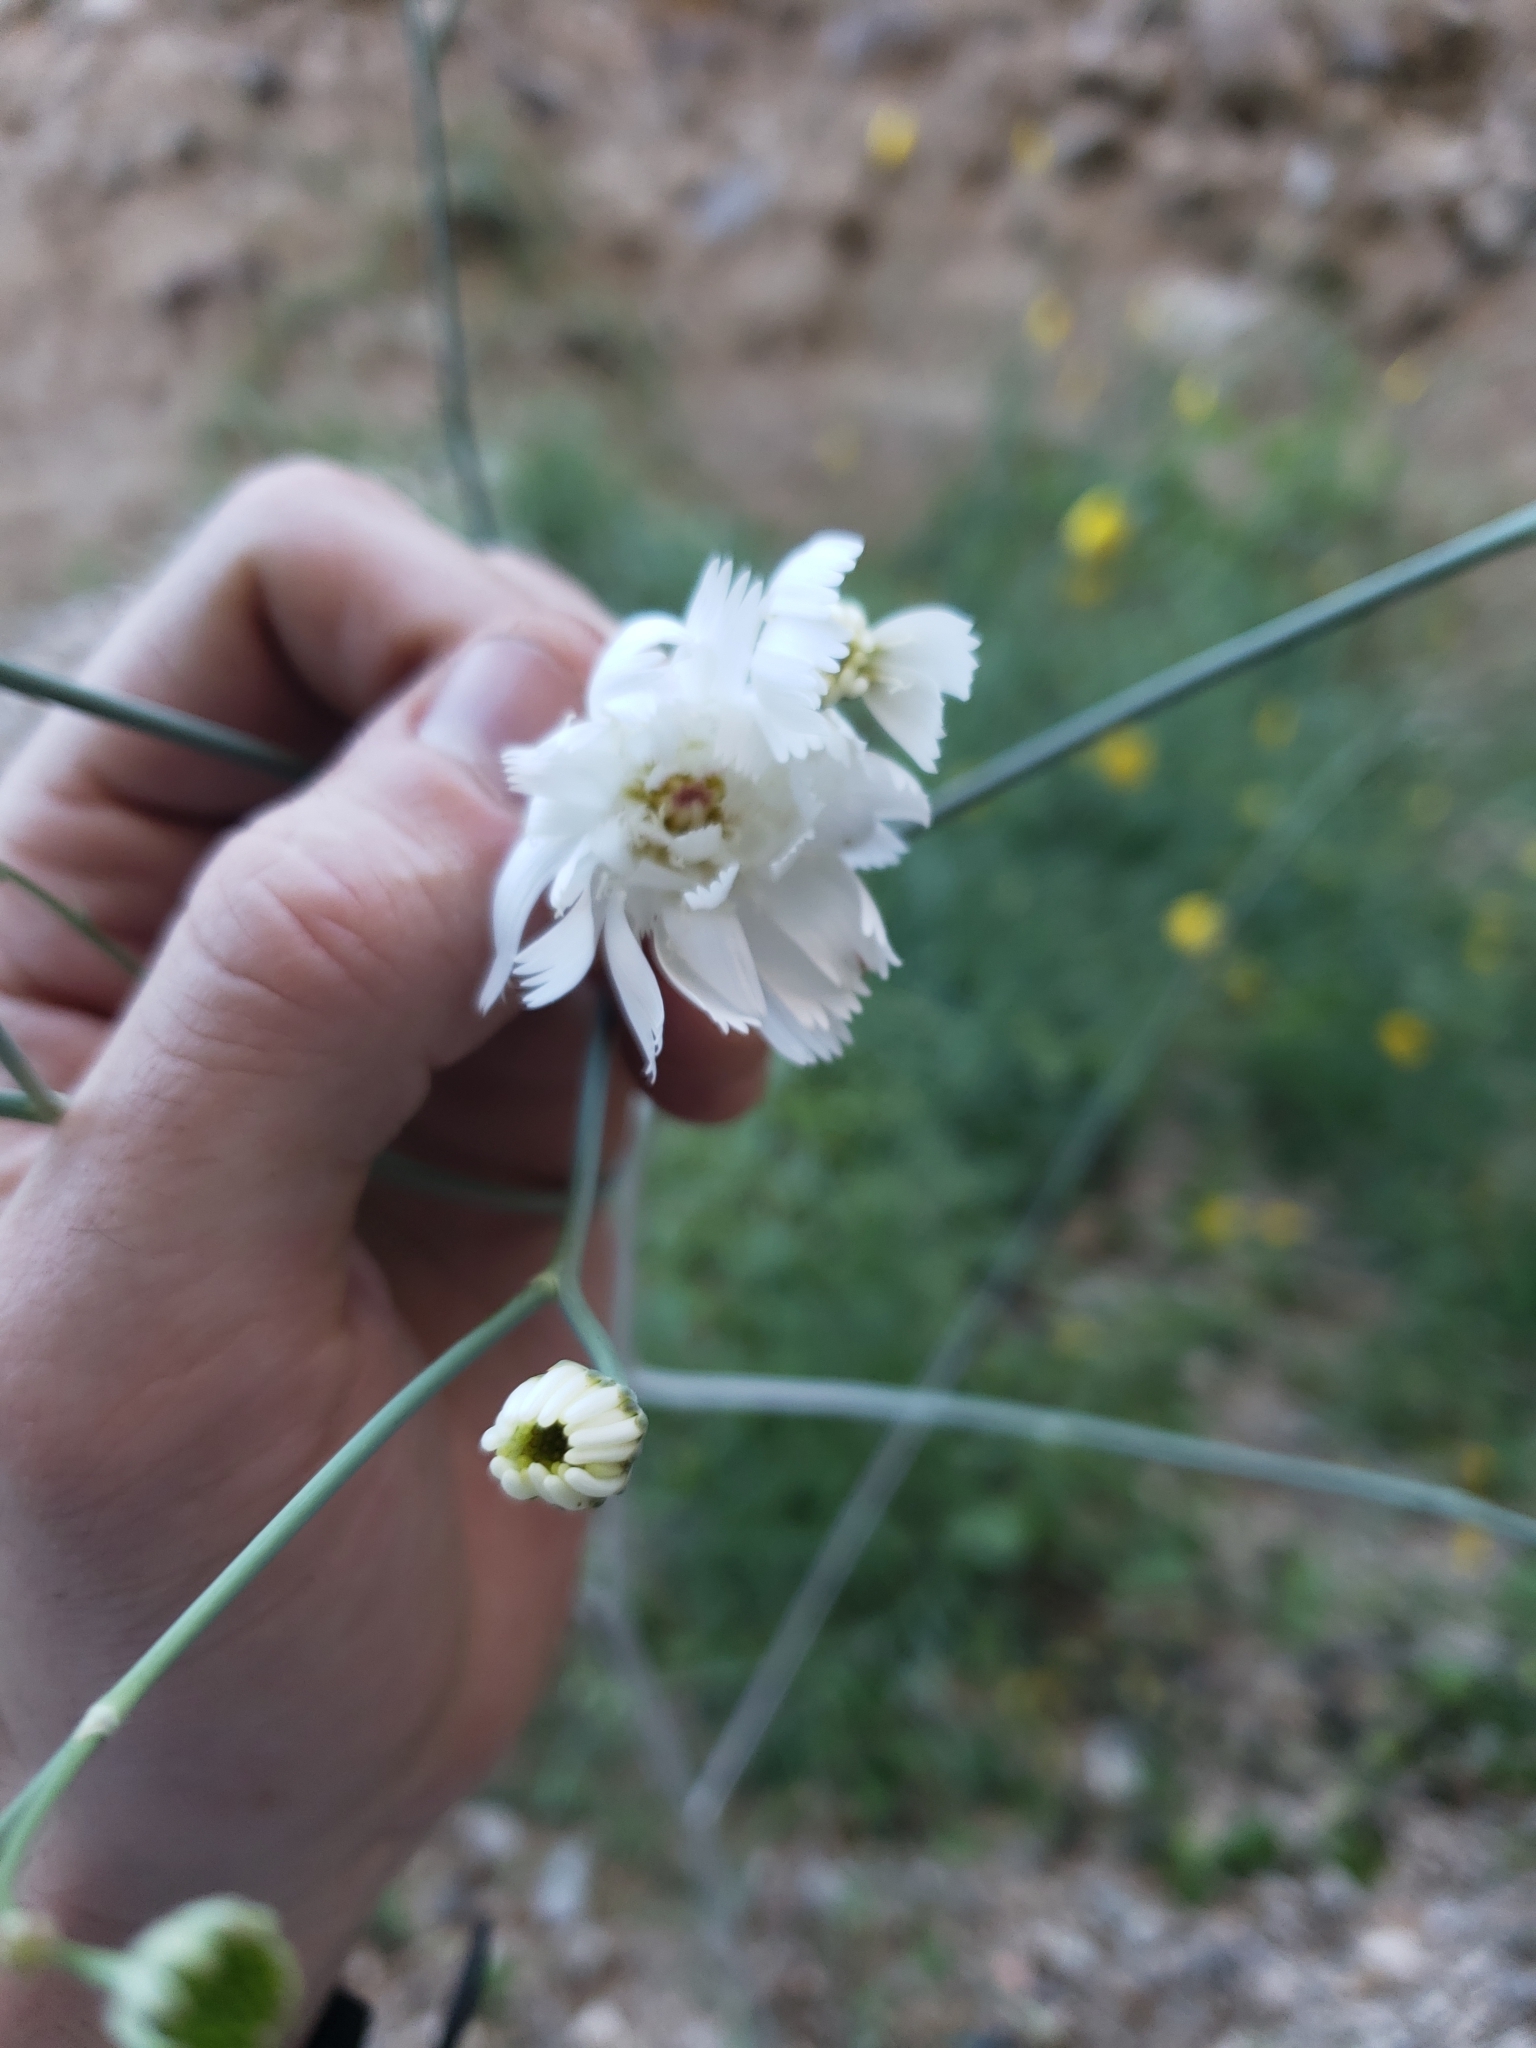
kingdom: Plantae
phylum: Tracheophyta
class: Magnoliopsida
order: Asterales
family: Asteraceae
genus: Atrichoseris
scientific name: Atrichoseris platyphylla
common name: Tobaccoweed
